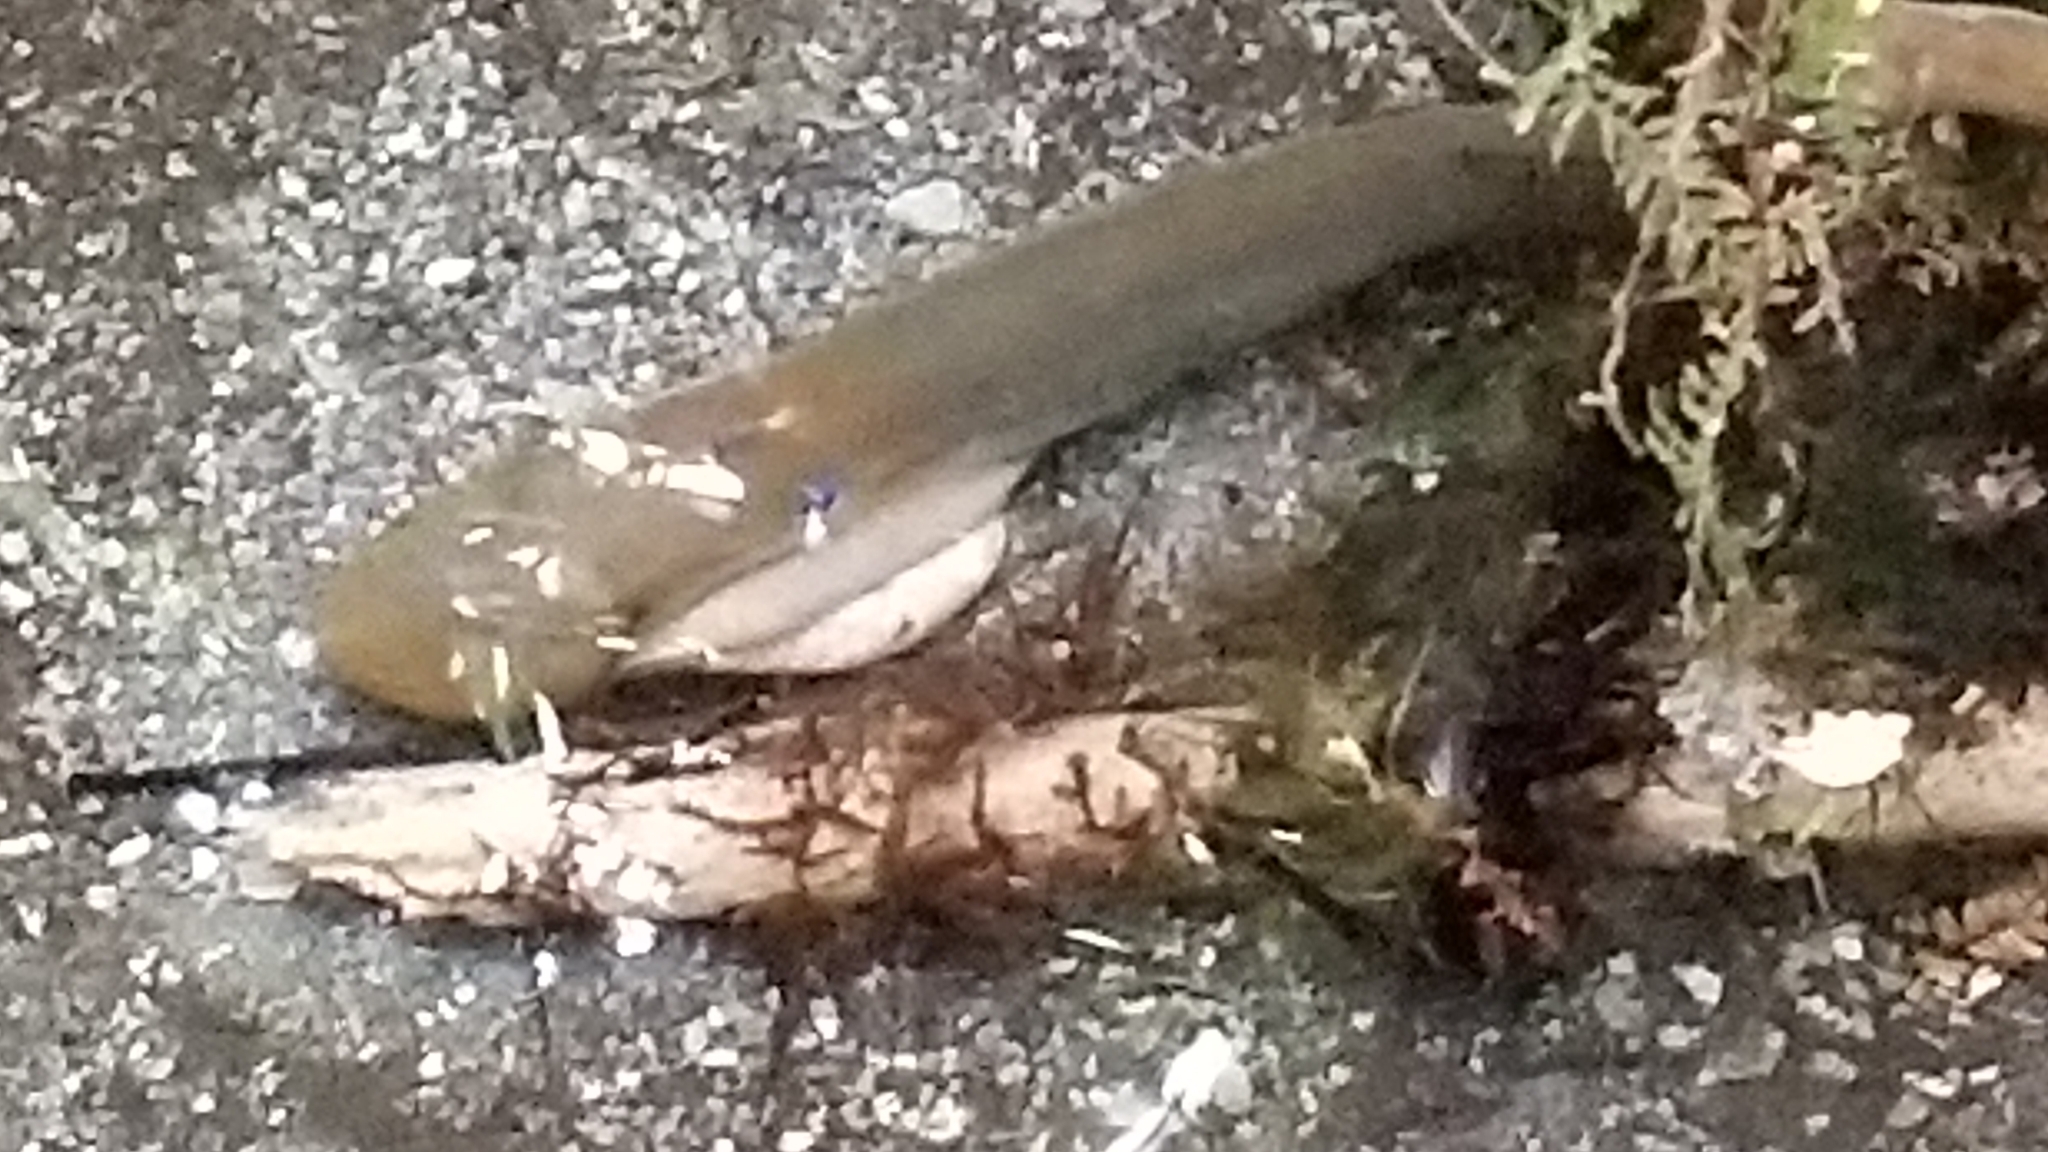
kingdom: Animalia
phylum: Chordata
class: Petromyzonti
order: Petromyzontiformes
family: Geotriidae
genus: Geotria
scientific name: Geotria australis
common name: Pouched lamprey
